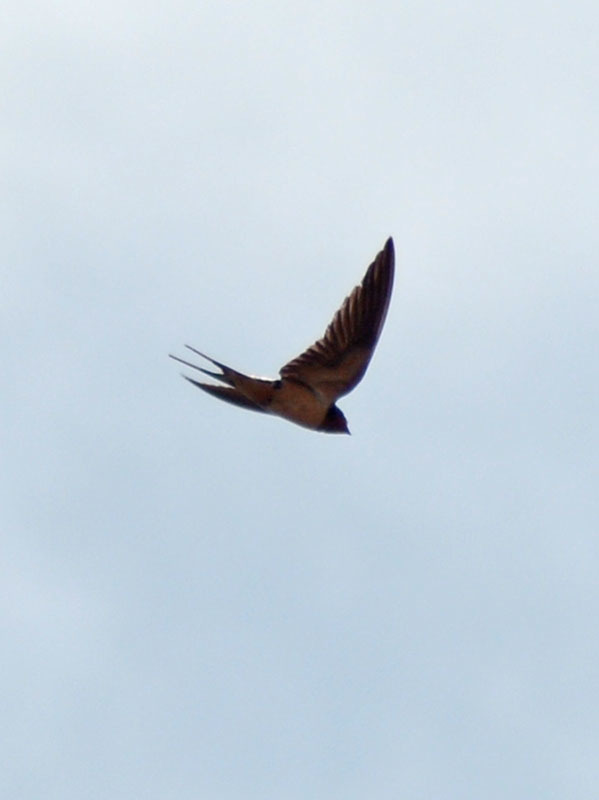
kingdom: Animalia
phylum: Chordata
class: Aves
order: Passeriformes
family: Hirundinidae
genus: Hirundo
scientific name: Hirundo rustica
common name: Barn swallow
